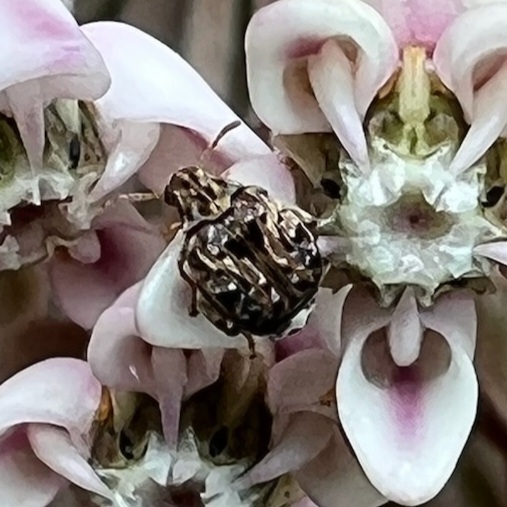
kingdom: Animalia
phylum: Arthropoda
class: Insecta
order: Coleoptera
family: Chrysomelidae
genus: Gibbobruchus
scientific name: Gibbobruchus mimus
